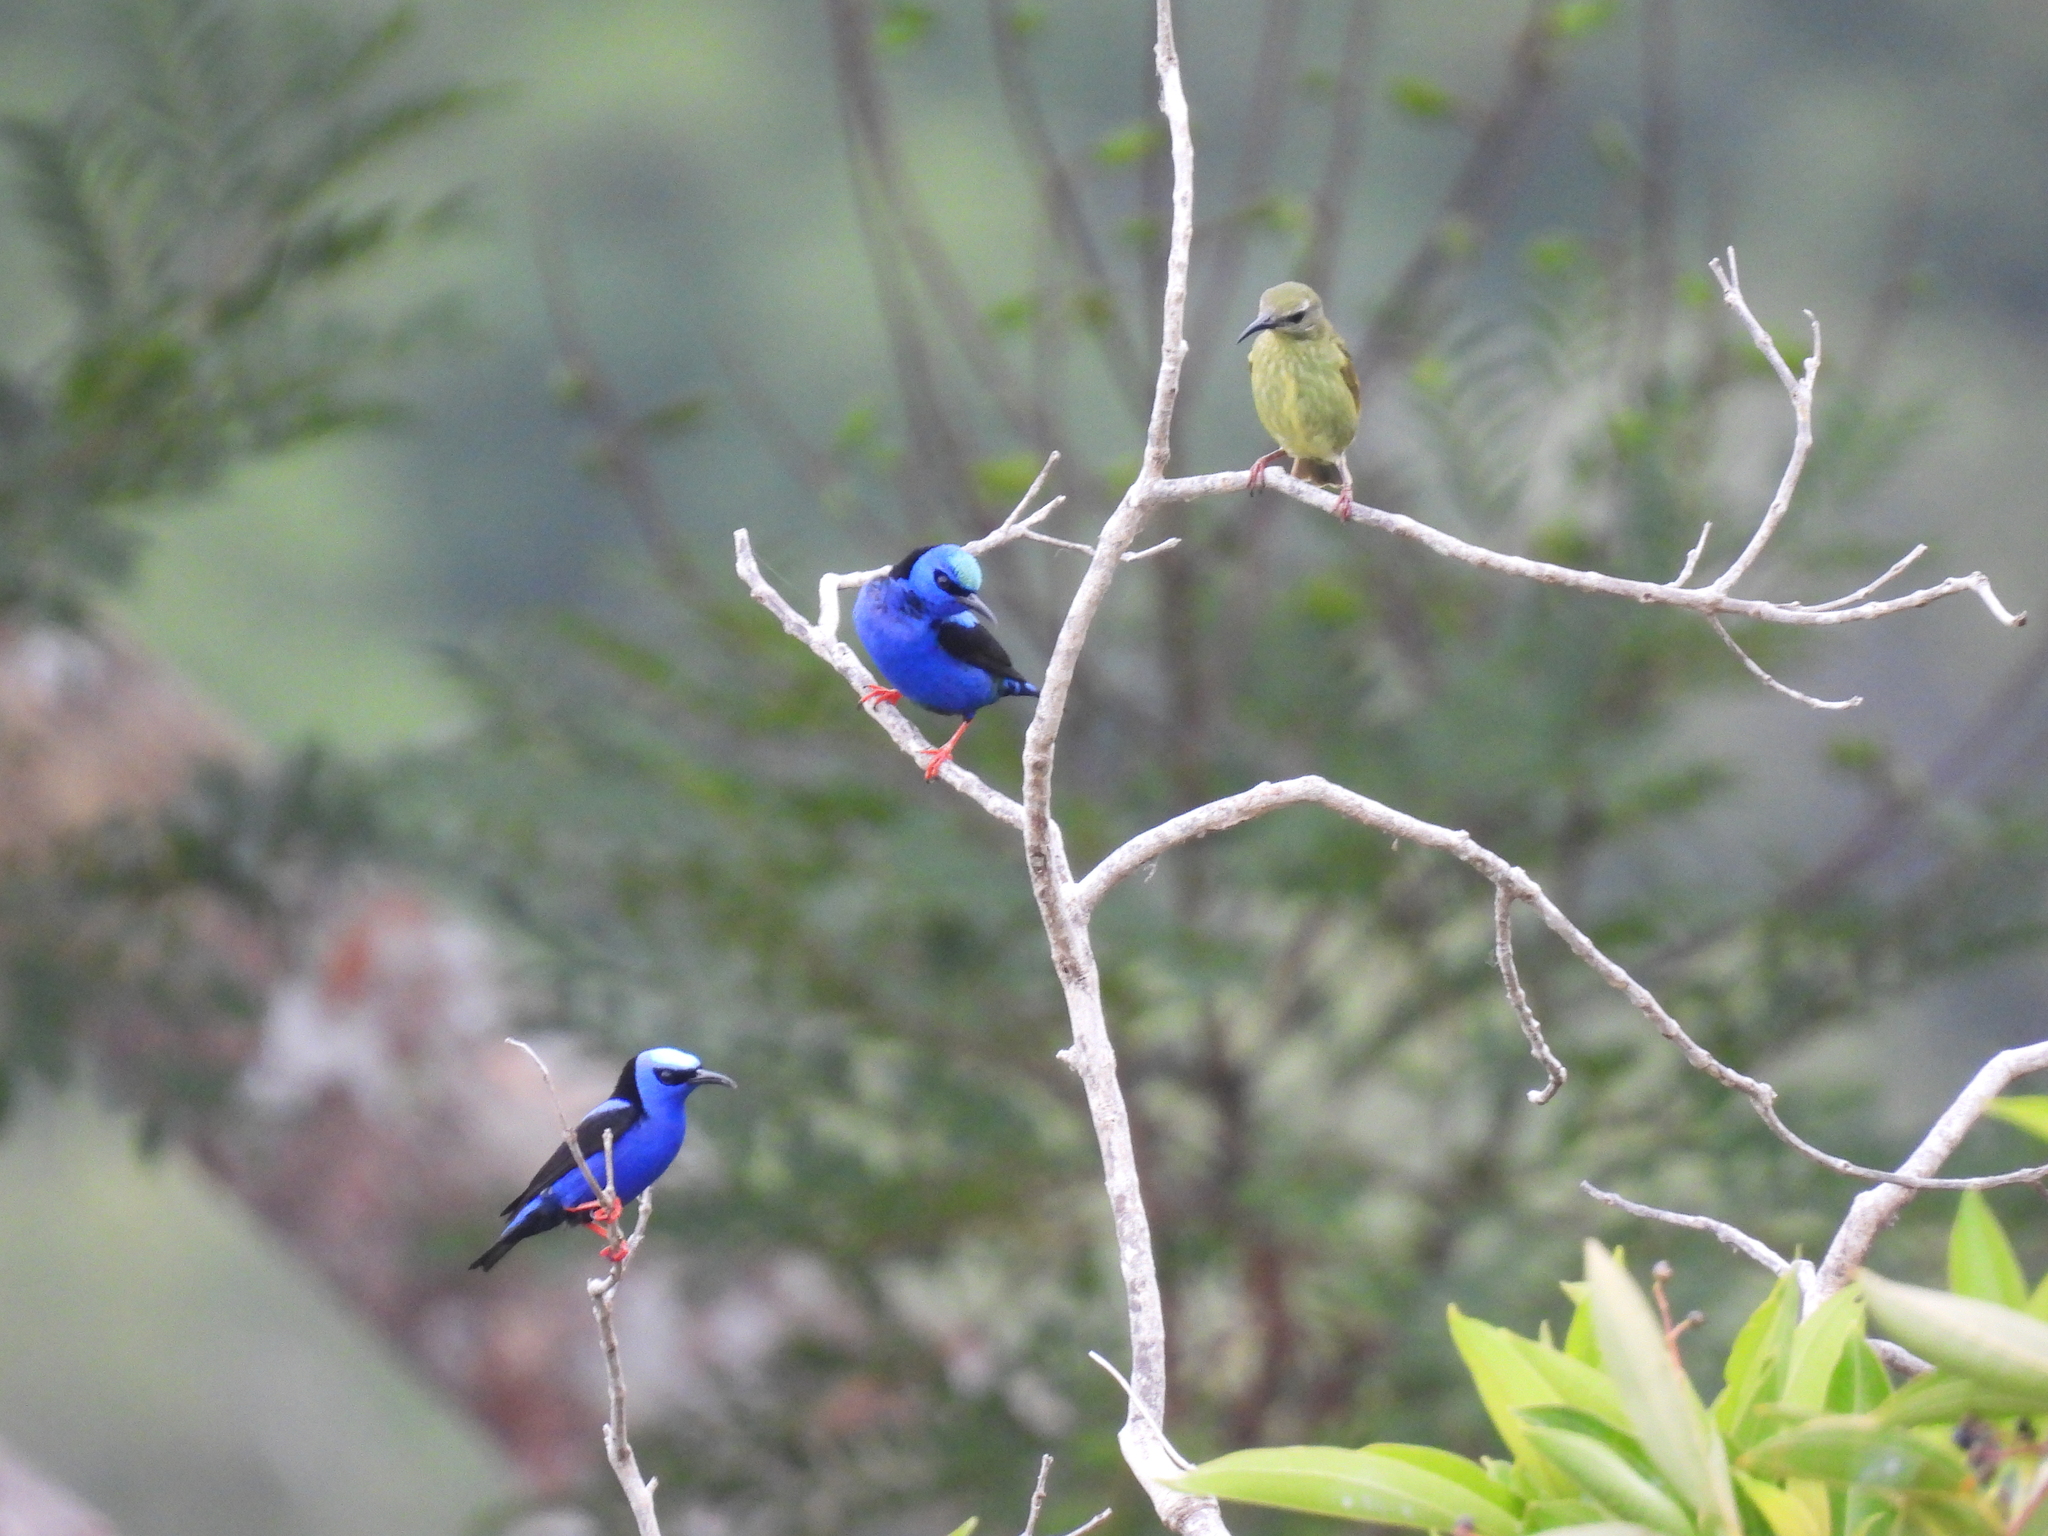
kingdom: Animalia
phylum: Chordata
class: Aves
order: Passeriformes
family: Thraupidae
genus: Cyanerpes
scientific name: Cyanerpes cyaneus
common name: Red-legged honeycreeper
